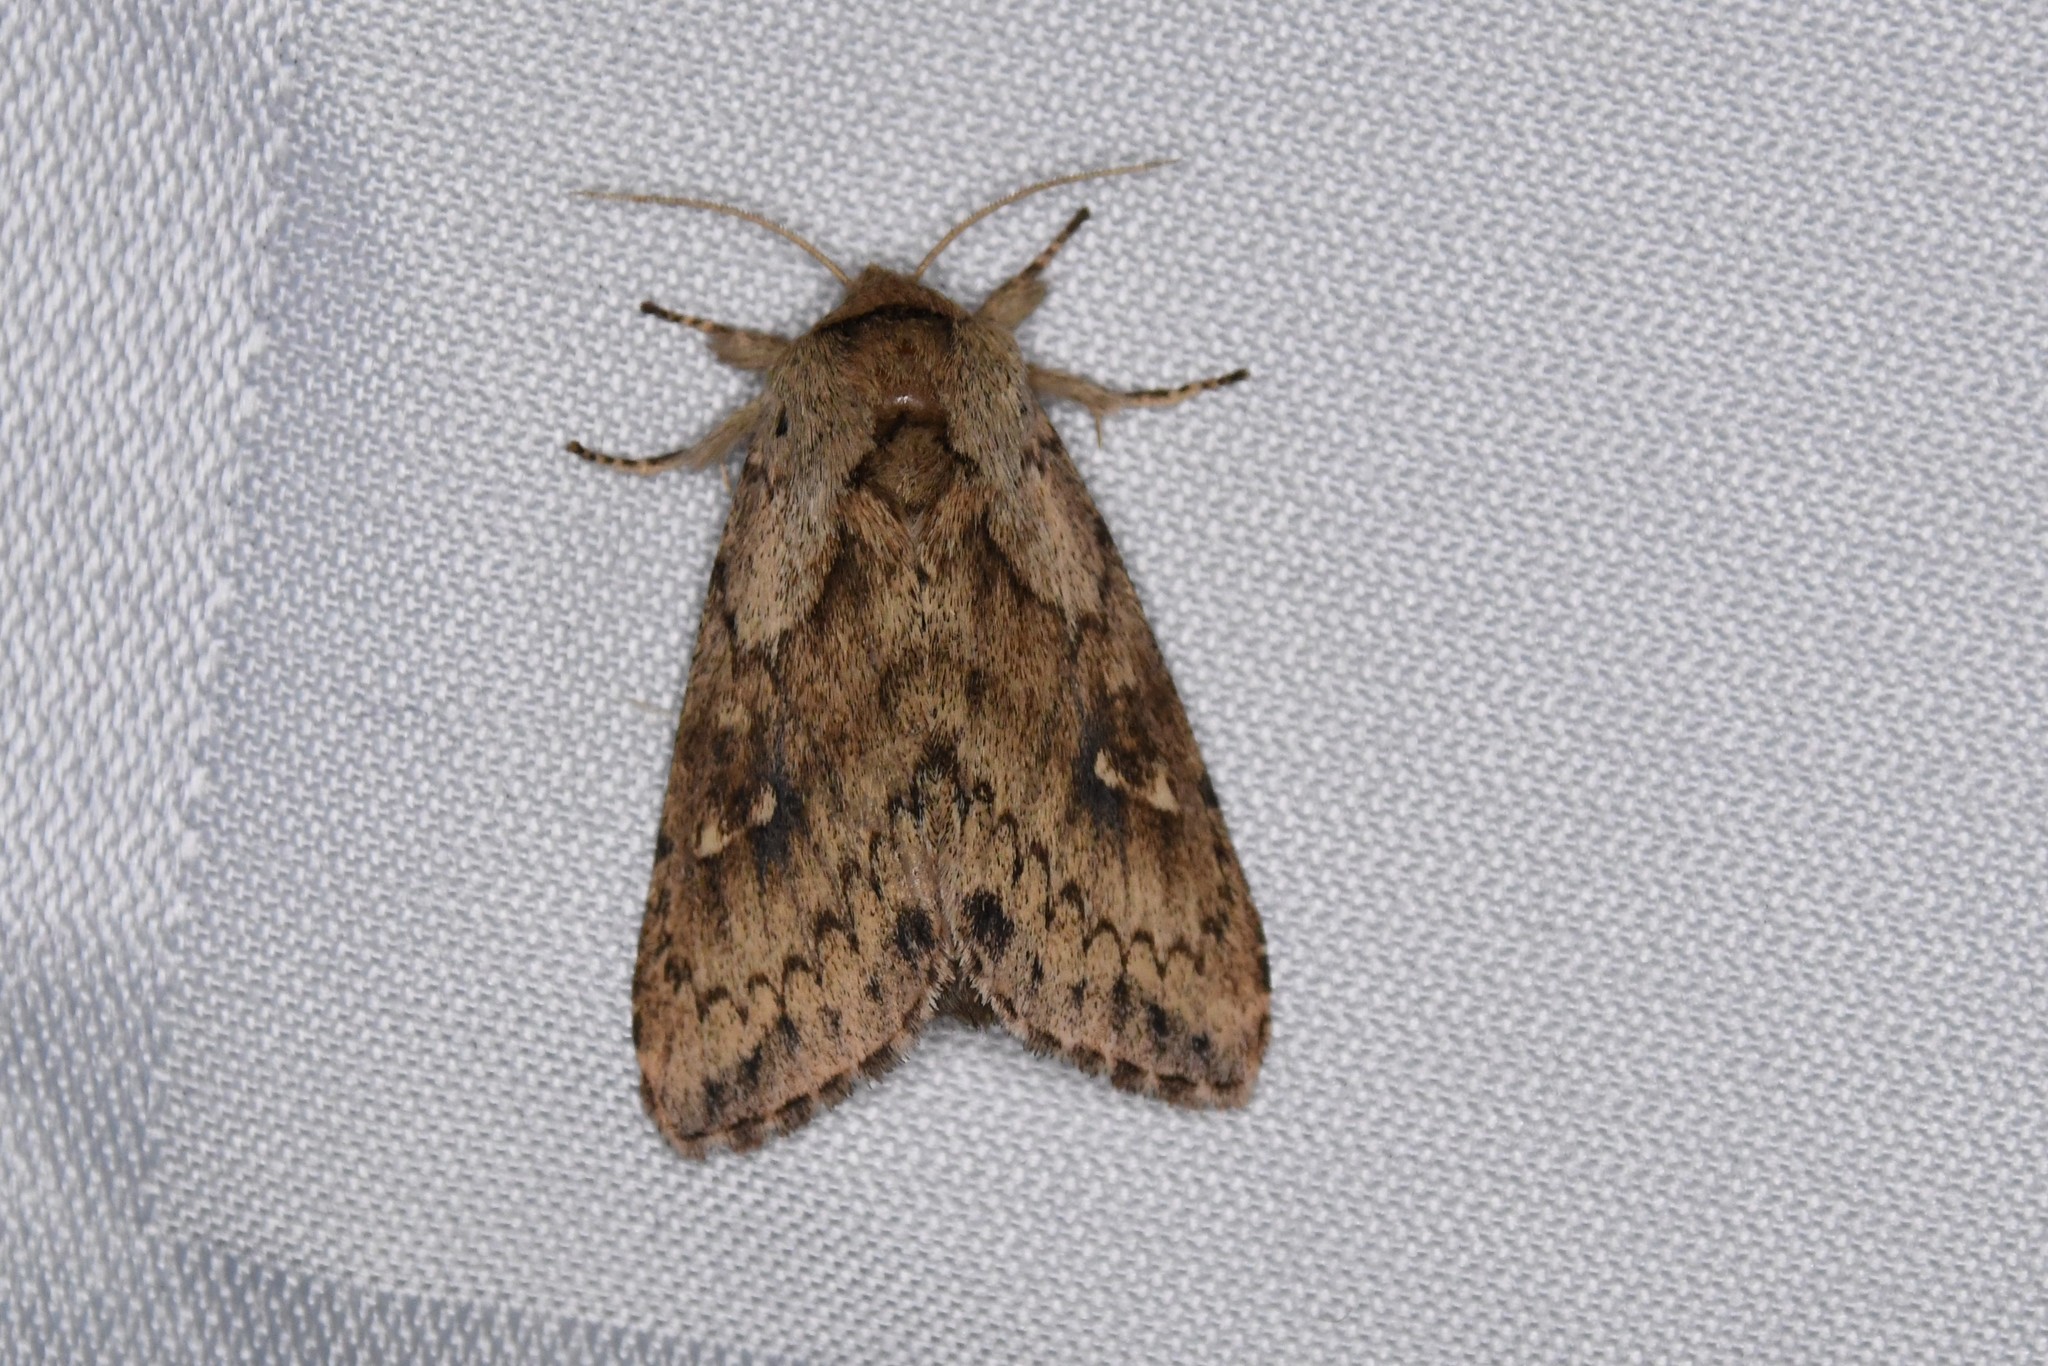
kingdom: Animalia
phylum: Arthropoda
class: Insecta
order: Lepidoptera
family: Noctuidae
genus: Bellura
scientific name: Bellura vulnifica
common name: Black-tailed diver moth
